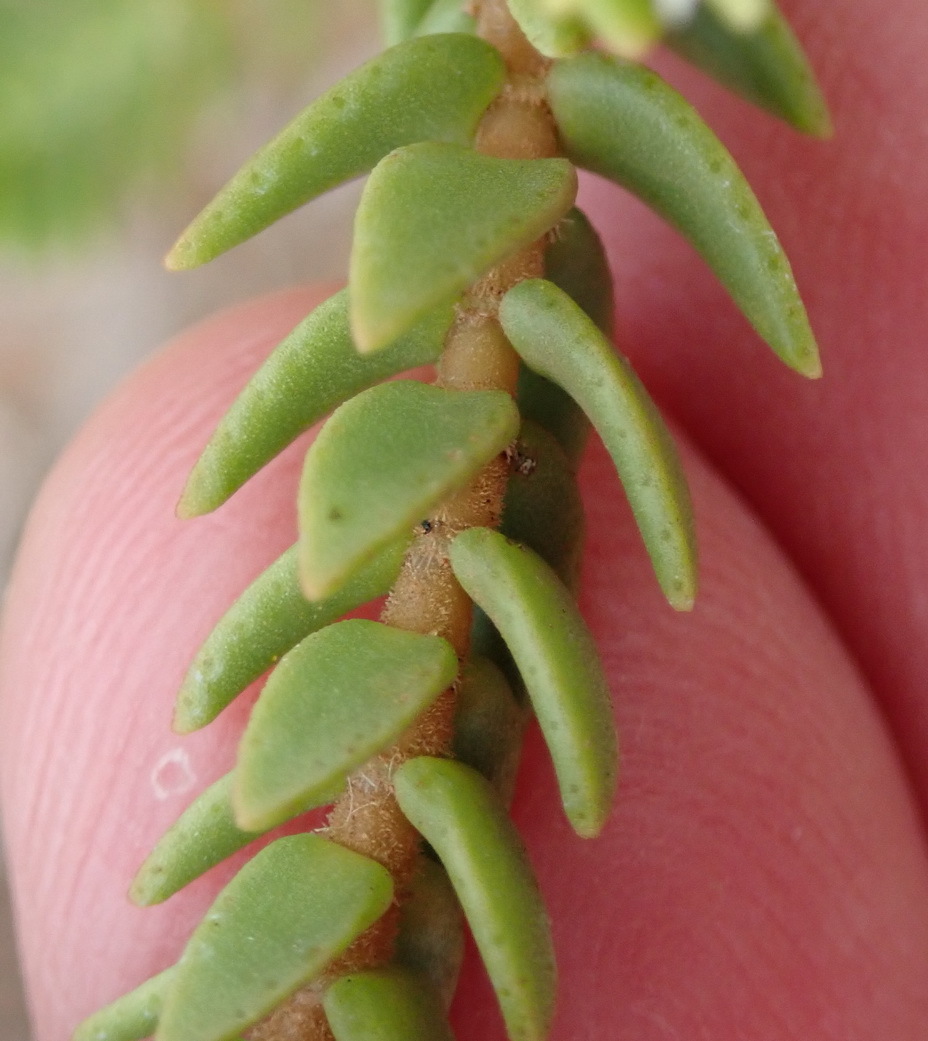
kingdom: Plantae
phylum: Tracheophyta
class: Magnoliopsida
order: Saxifragales
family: Crassulaceae
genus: Crassula
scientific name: Crassula ericoides
